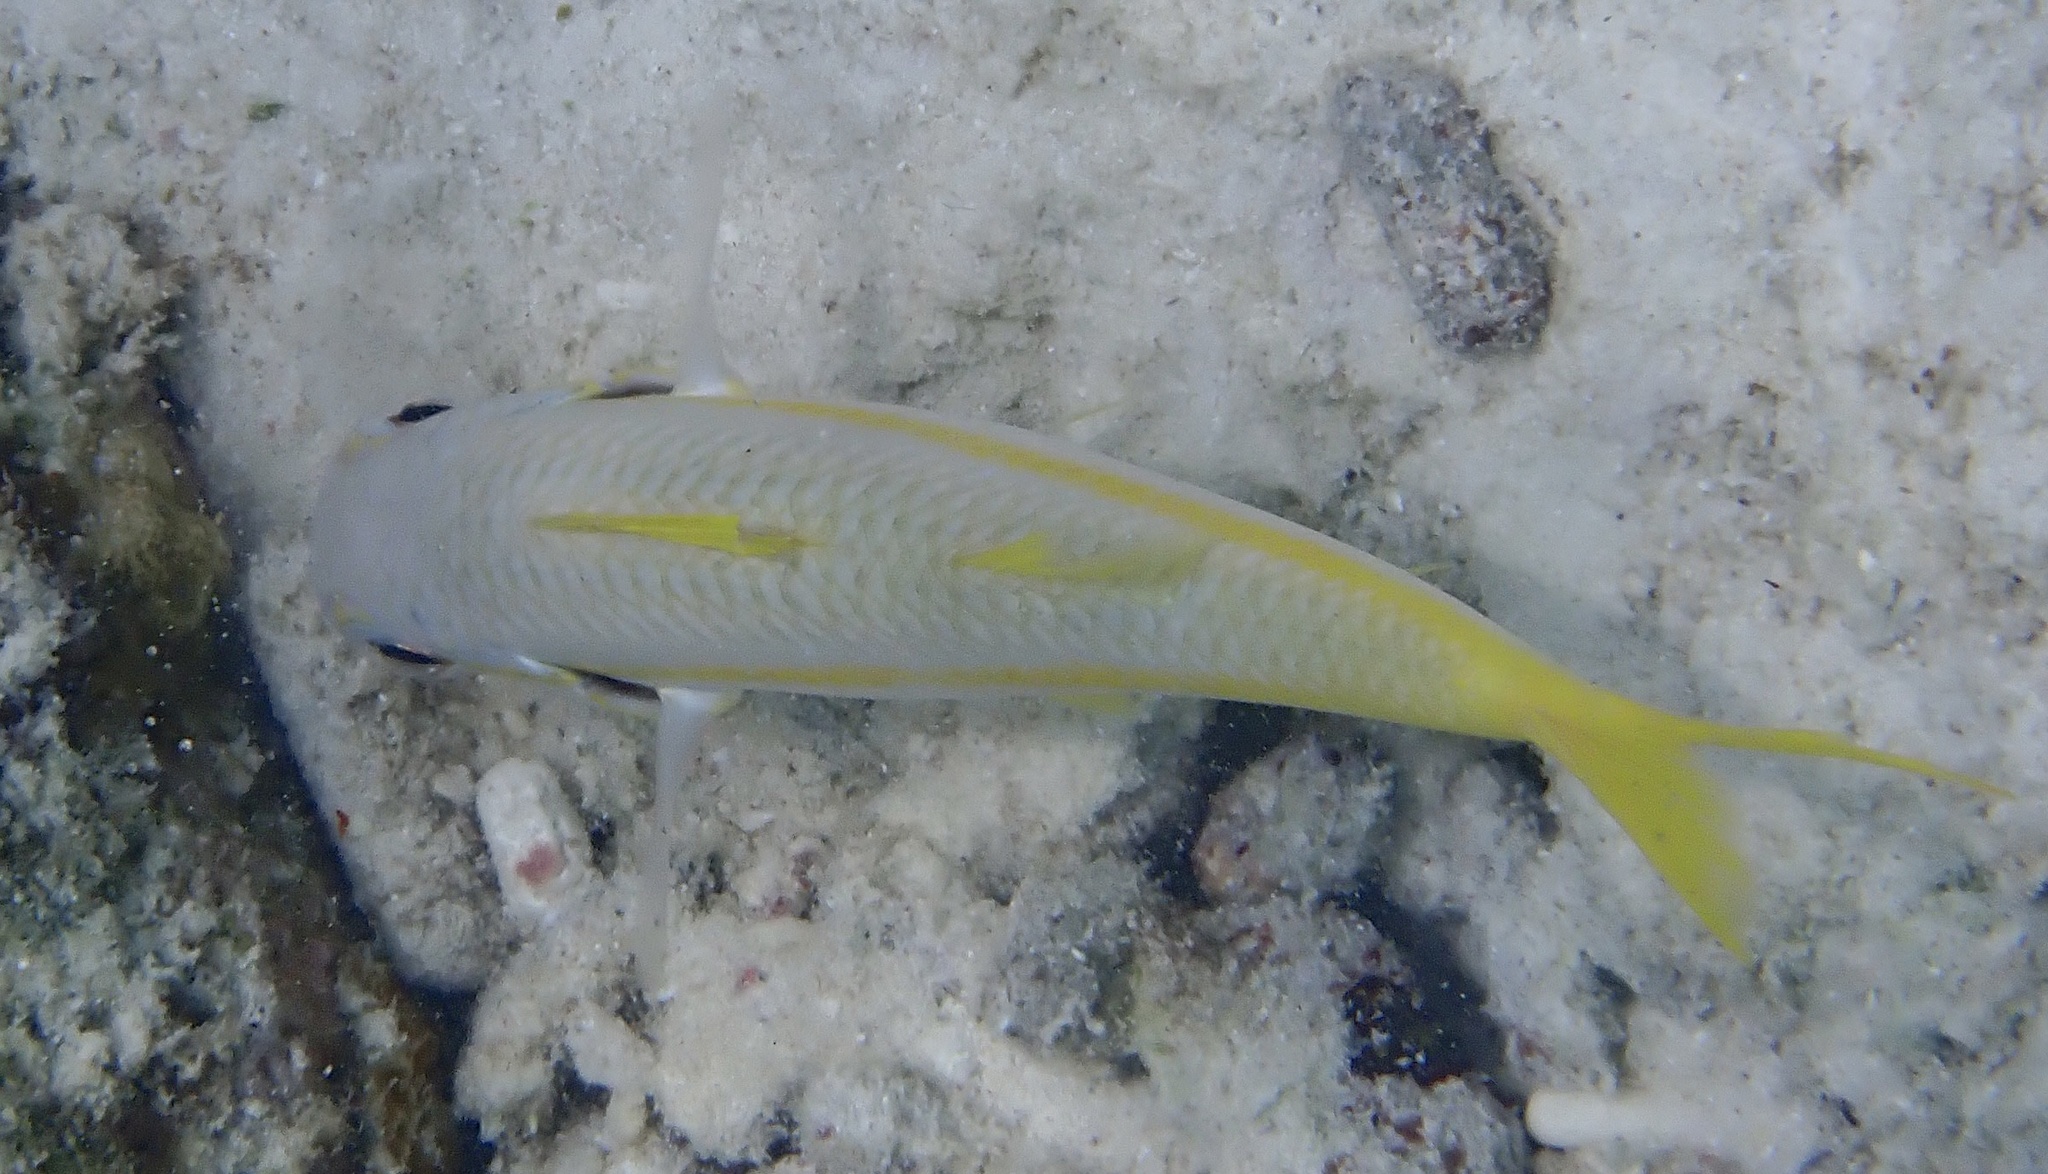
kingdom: Animalia
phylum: Chordata
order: Perciformes
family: Mullidae
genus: Mulloidichthys
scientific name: Mulloidichthys martinicus
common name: Yellow goatfish
